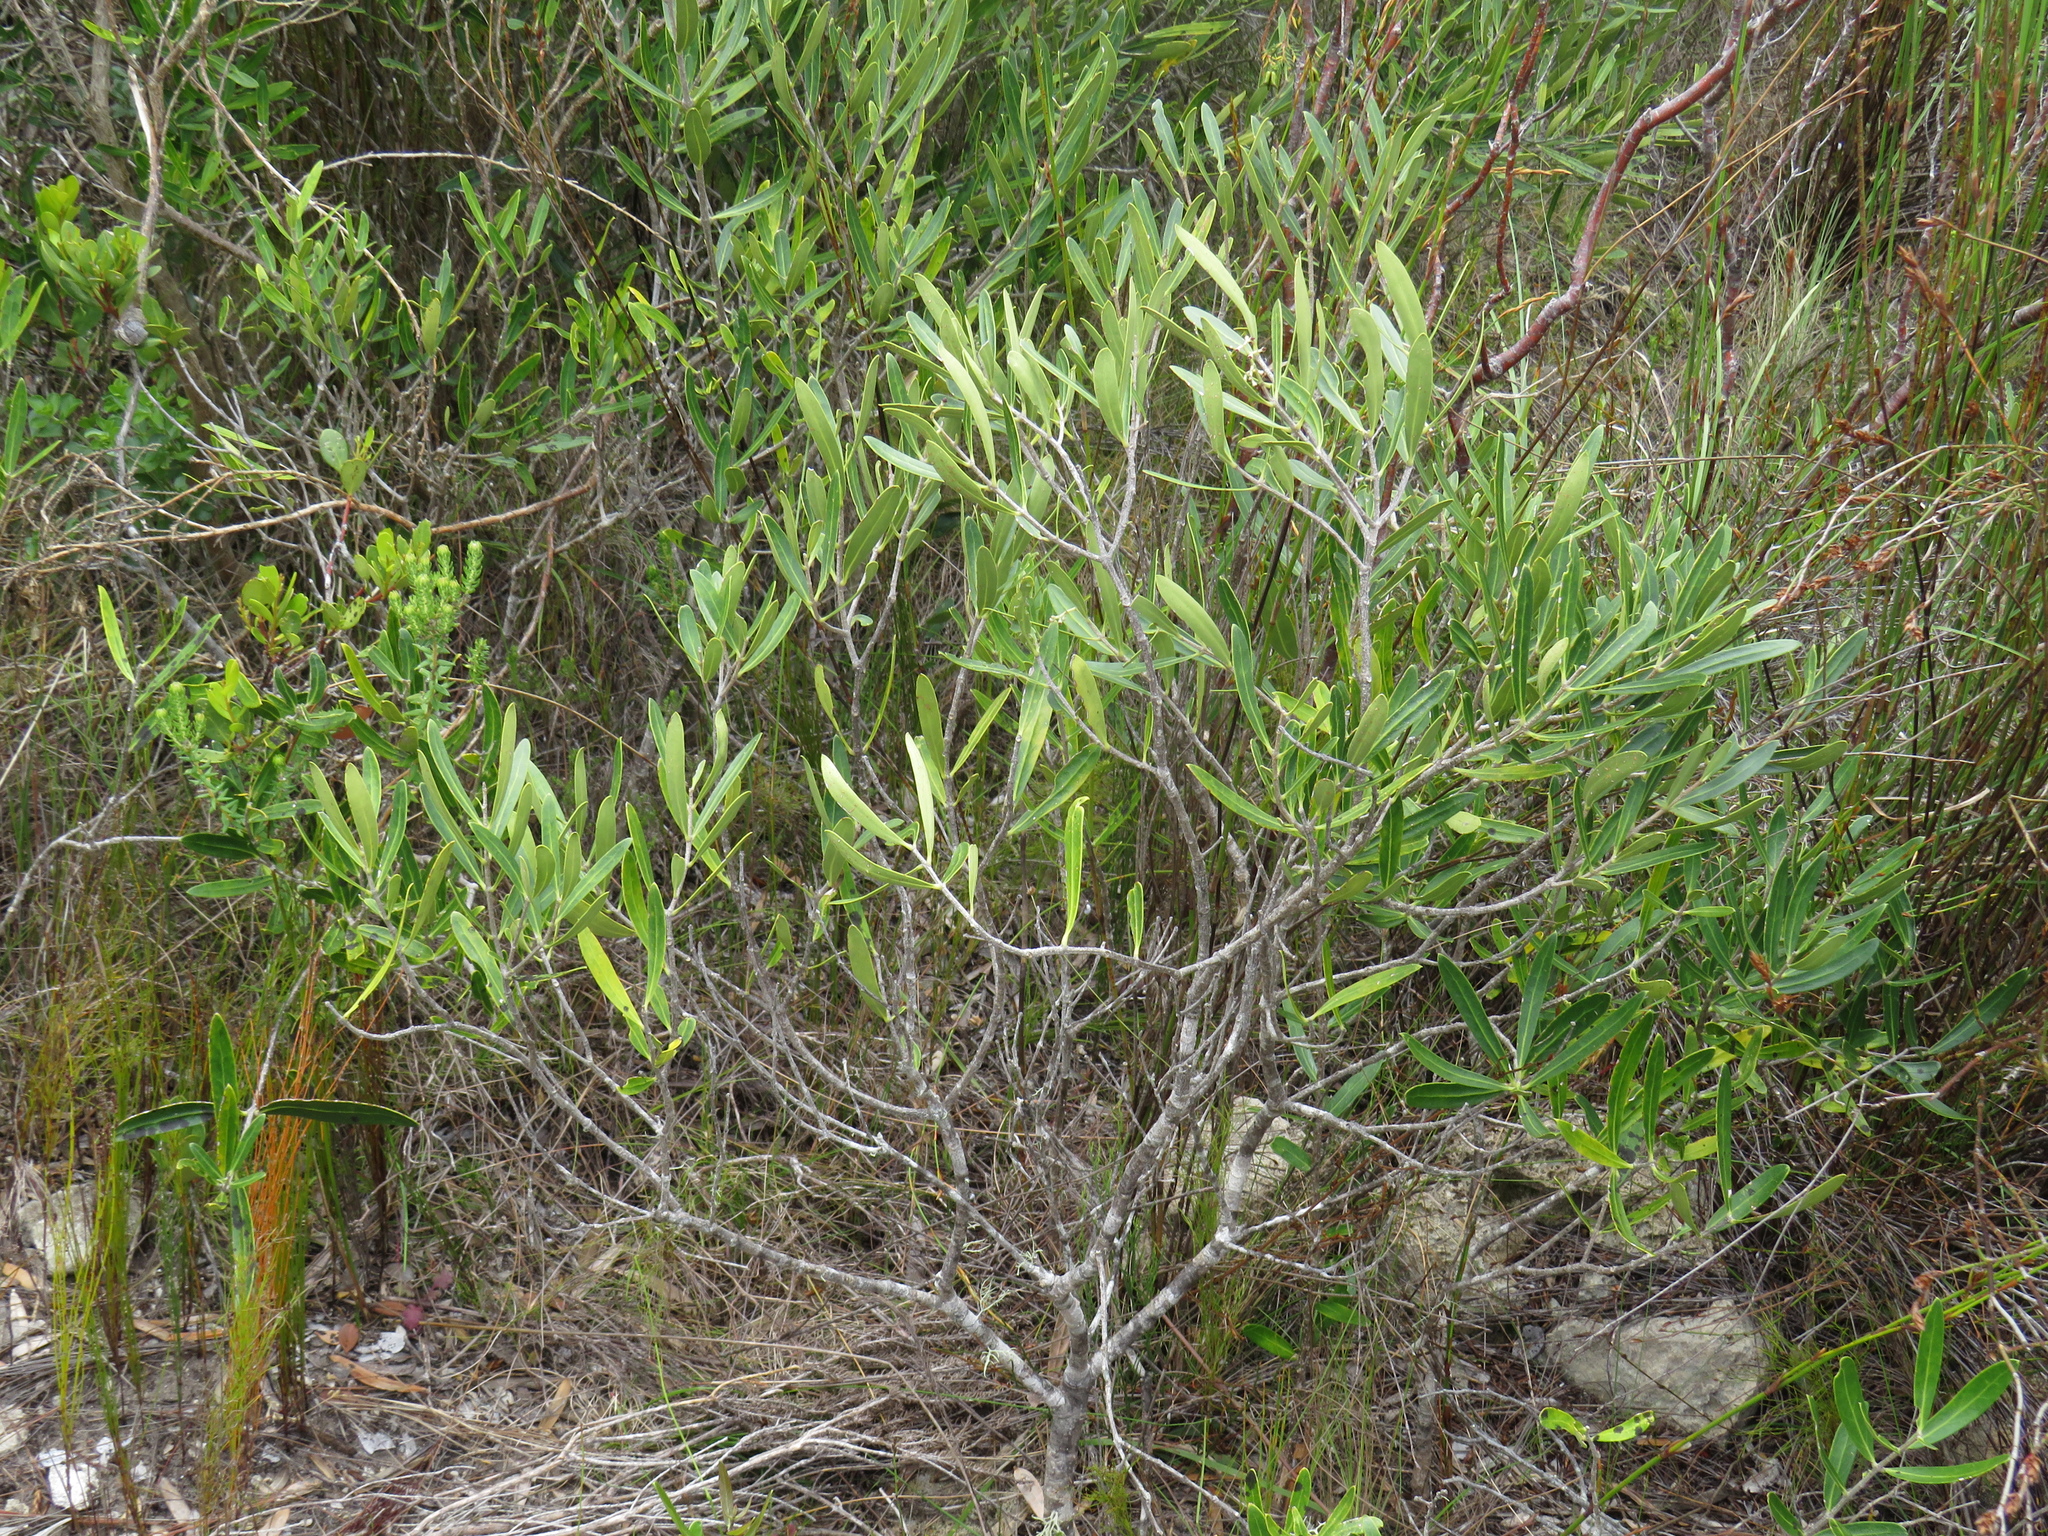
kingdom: Plantae
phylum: Tracheophyta
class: Magnoliopsida
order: Lamiales
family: Oleaceae
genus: Olea
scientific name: Olea exasperata
